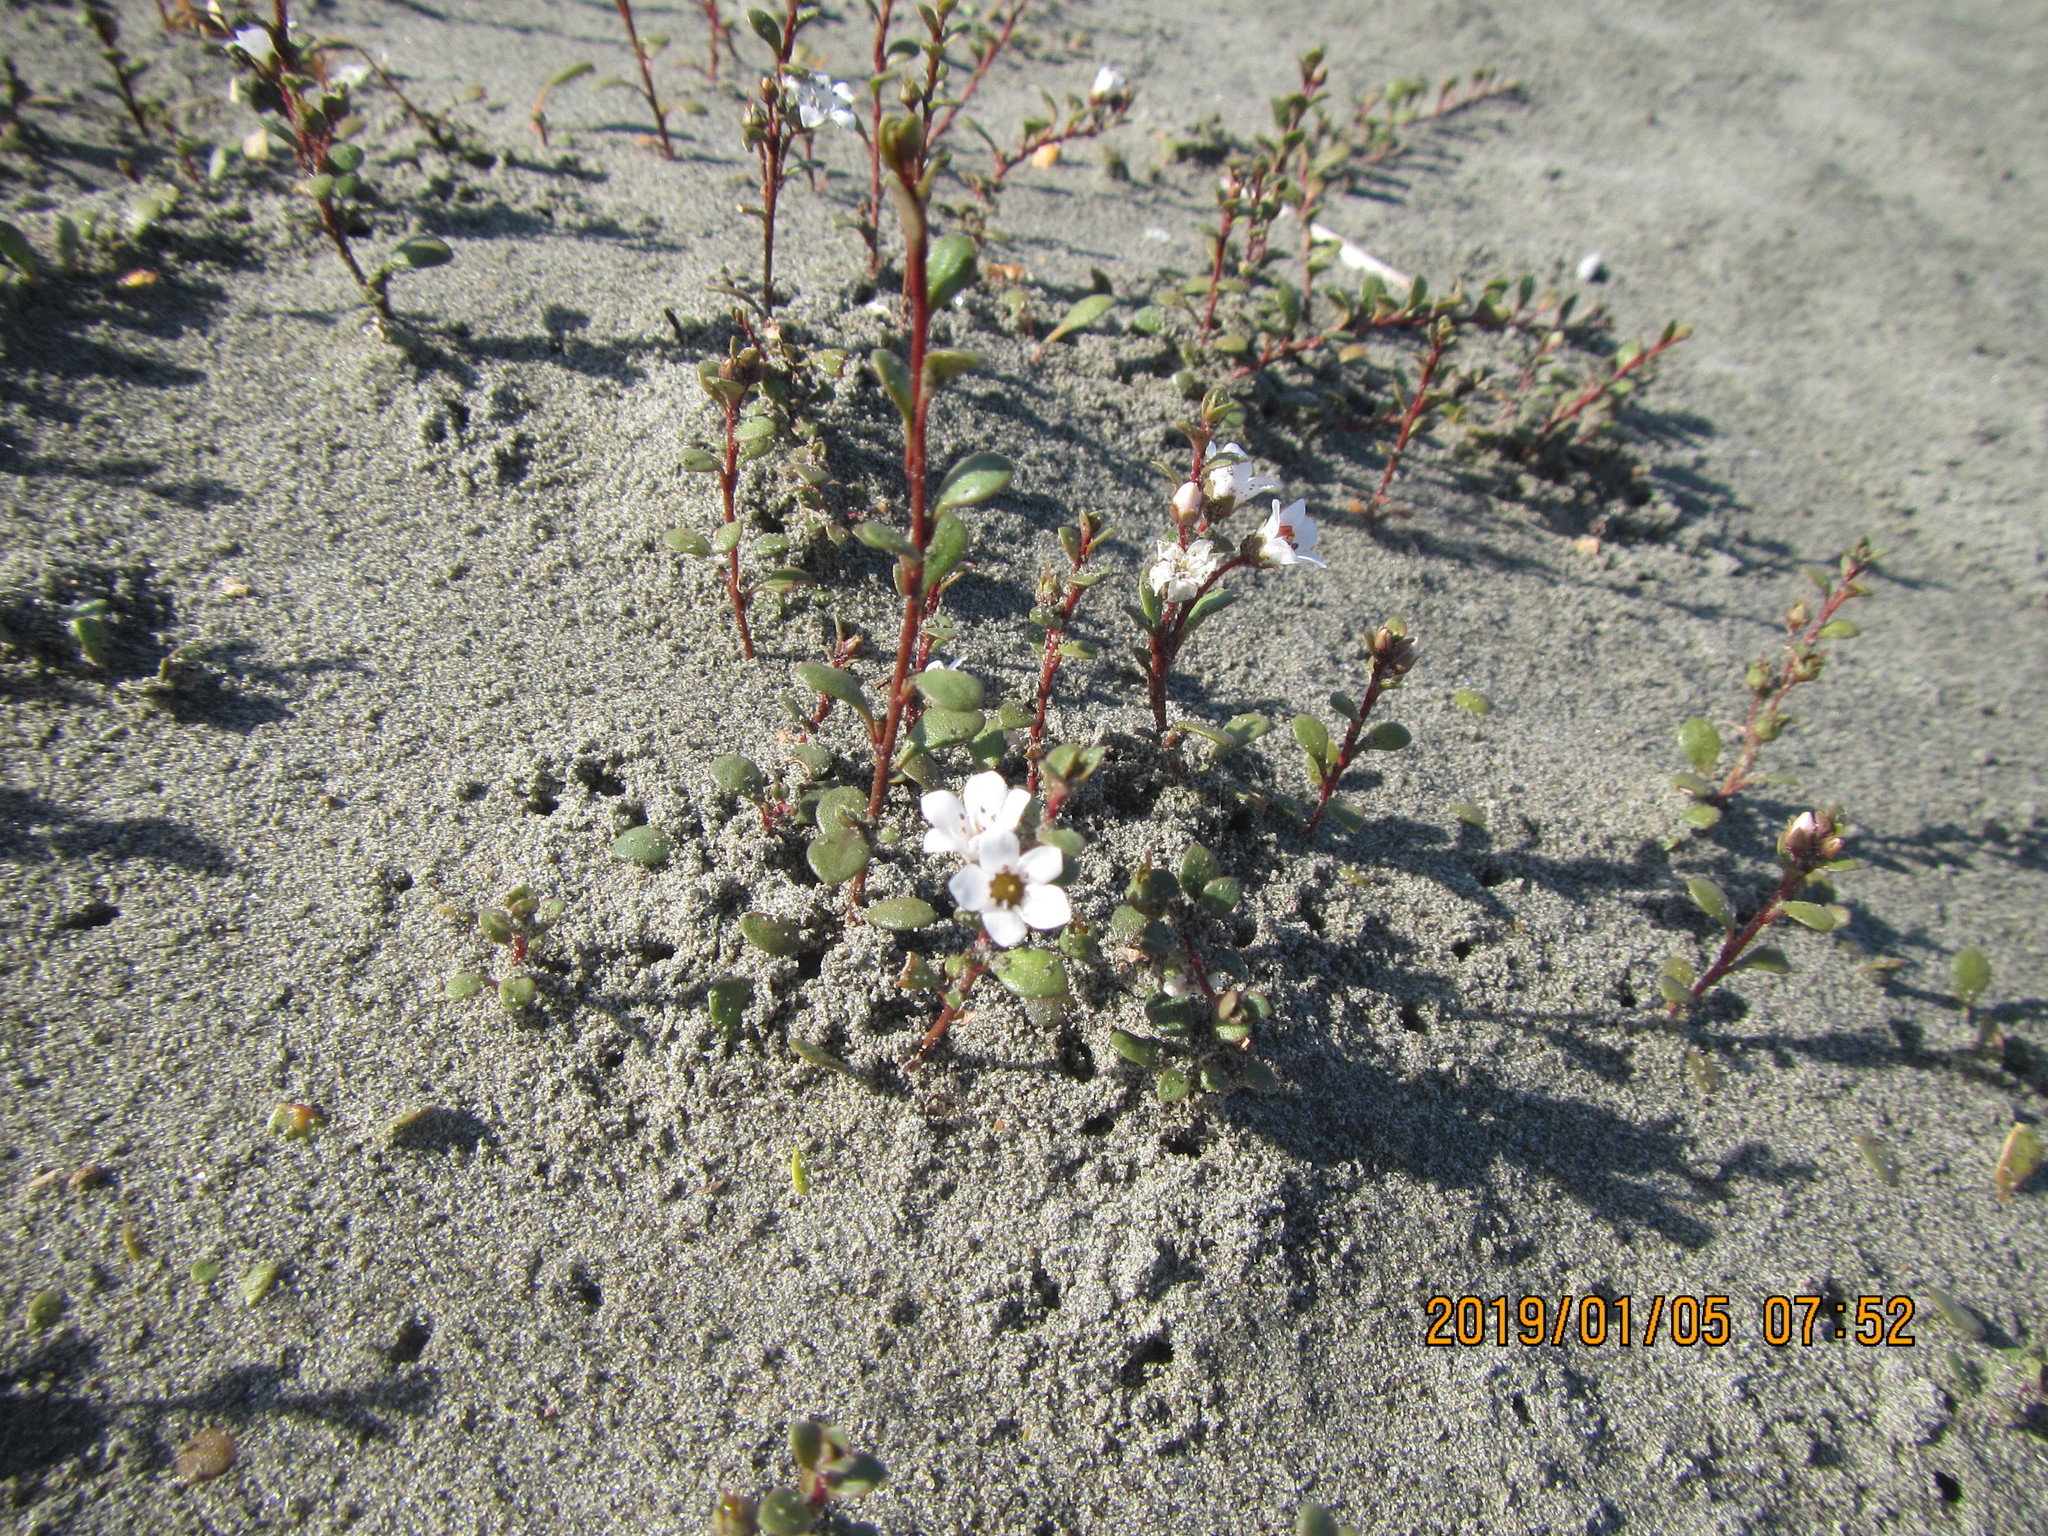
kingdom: Plantae
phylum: Tracheophyta
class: Magnoliopsida
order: Ericales
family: Primulaceae
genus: Samolus
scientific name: Samolus repens
